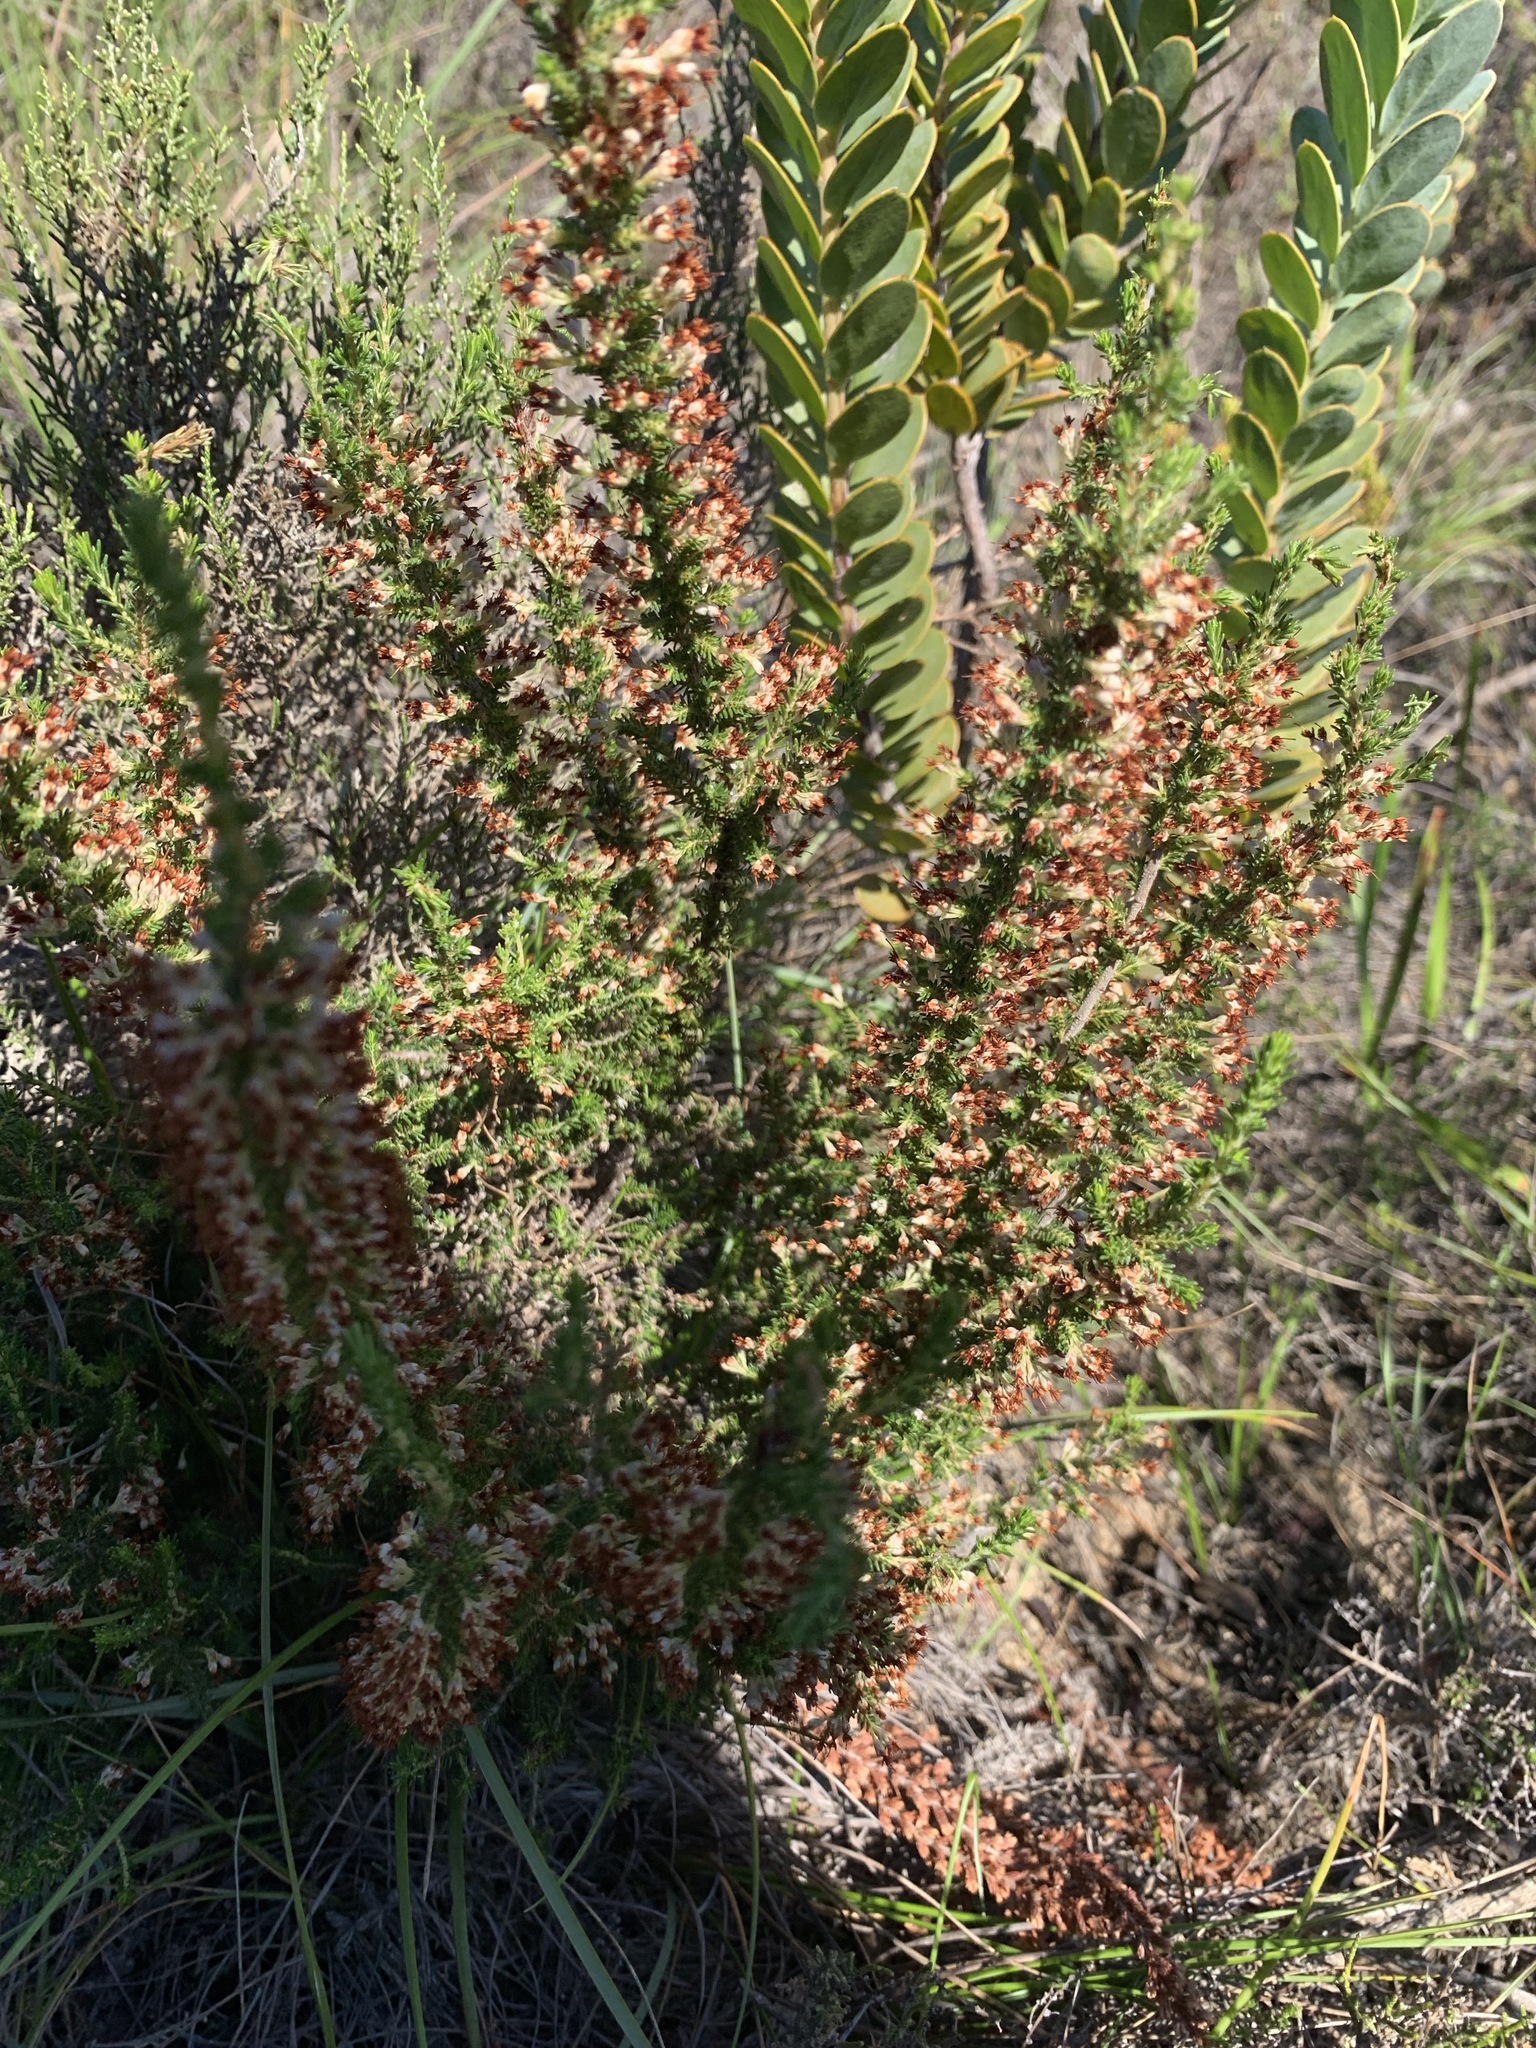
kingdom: Plantae
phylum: Tracheophyta
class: Magnoliopsida
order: Ericales
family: Ericaceae
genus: Erica
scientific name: Erica imbricata
